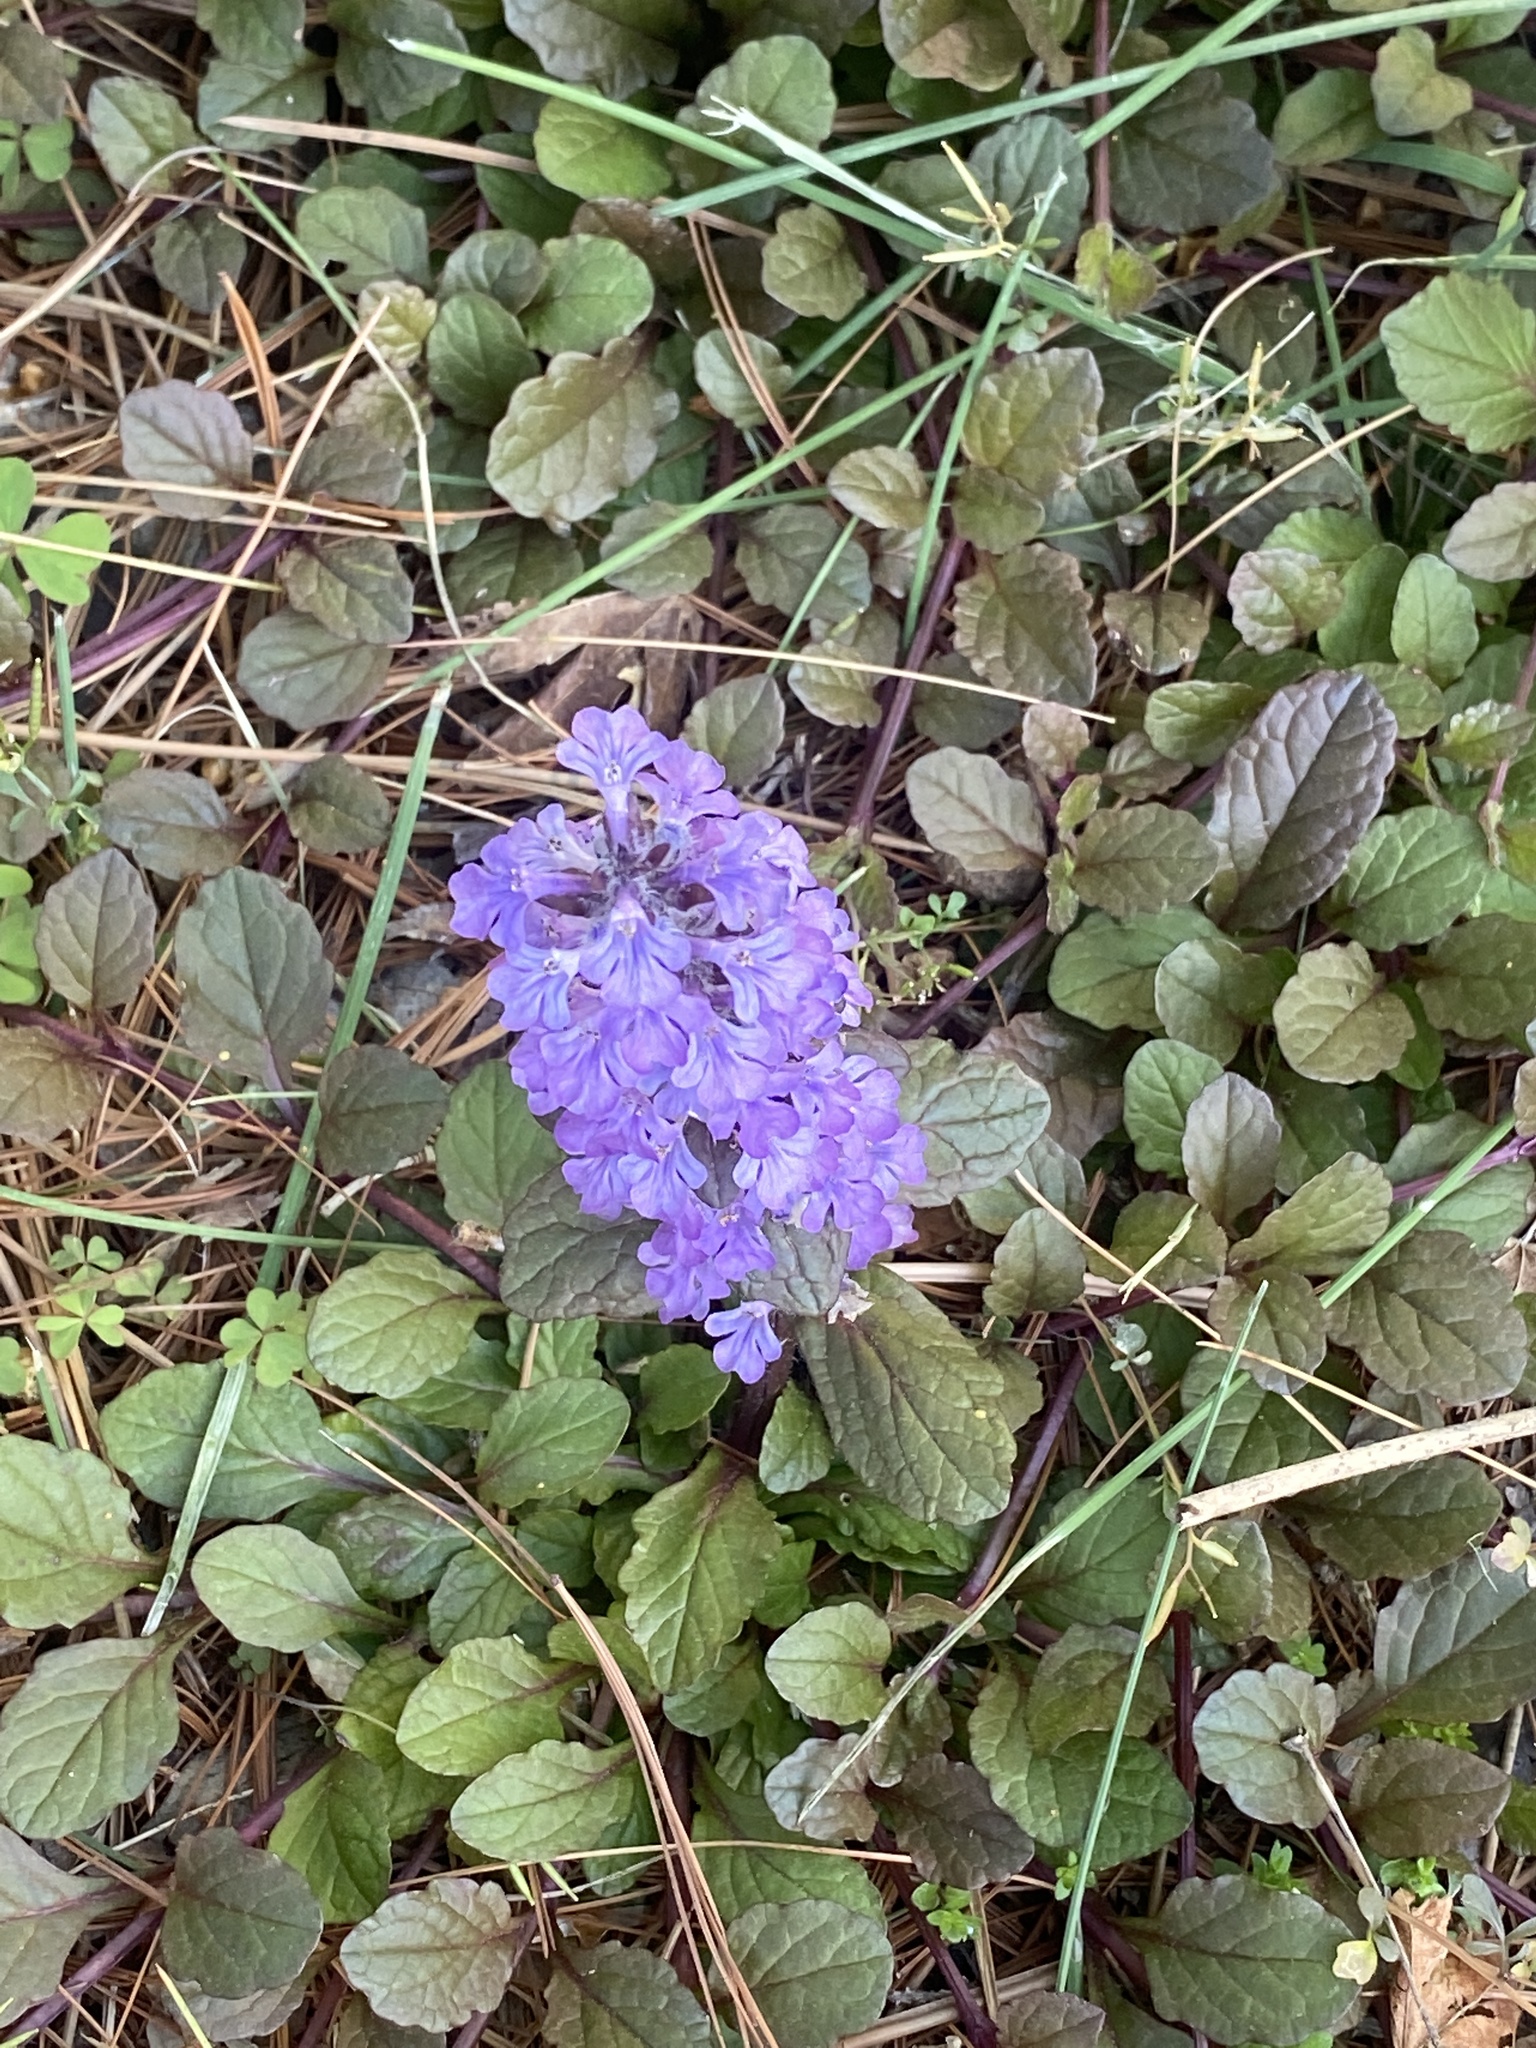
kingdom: Plantae
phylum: Tracheophyta
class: Magnoliopsida
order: Lamiales
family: Lamiaceae
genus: Ajuga
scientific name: Ajuga reptans
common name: Bugle
